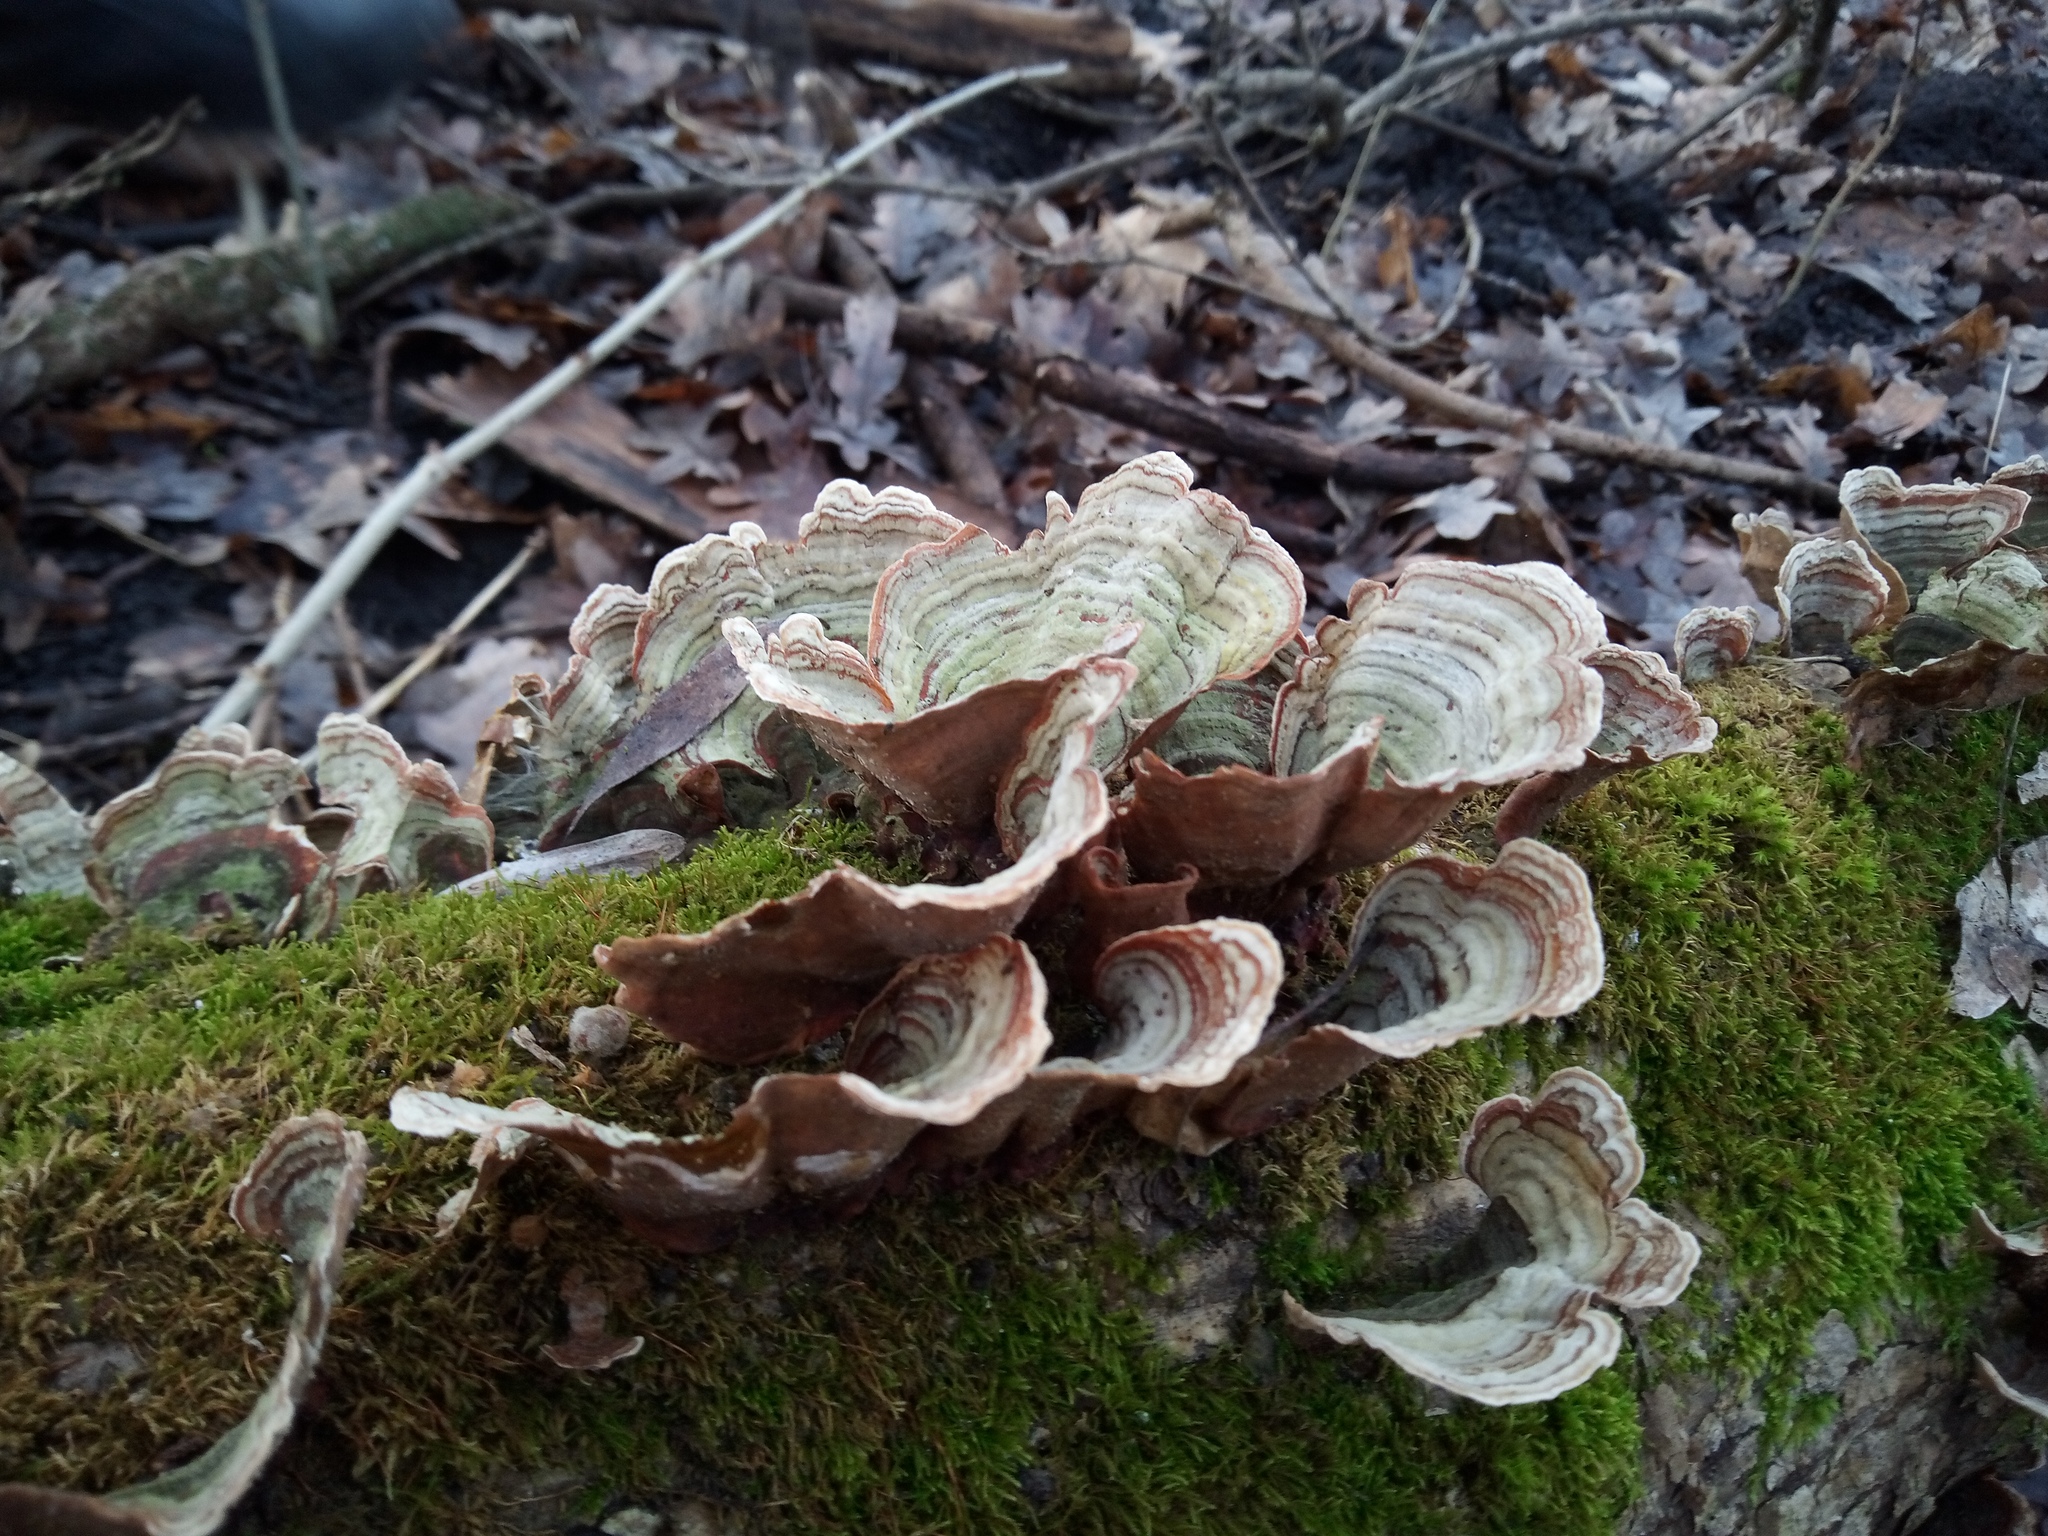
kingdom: Fungi
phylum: Basidiomycota
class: Agaricomycetes
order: Russulales
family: Stereaceae
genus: Stereum
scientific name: Stereum subtomentosum
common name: Yellowing curtain crust
